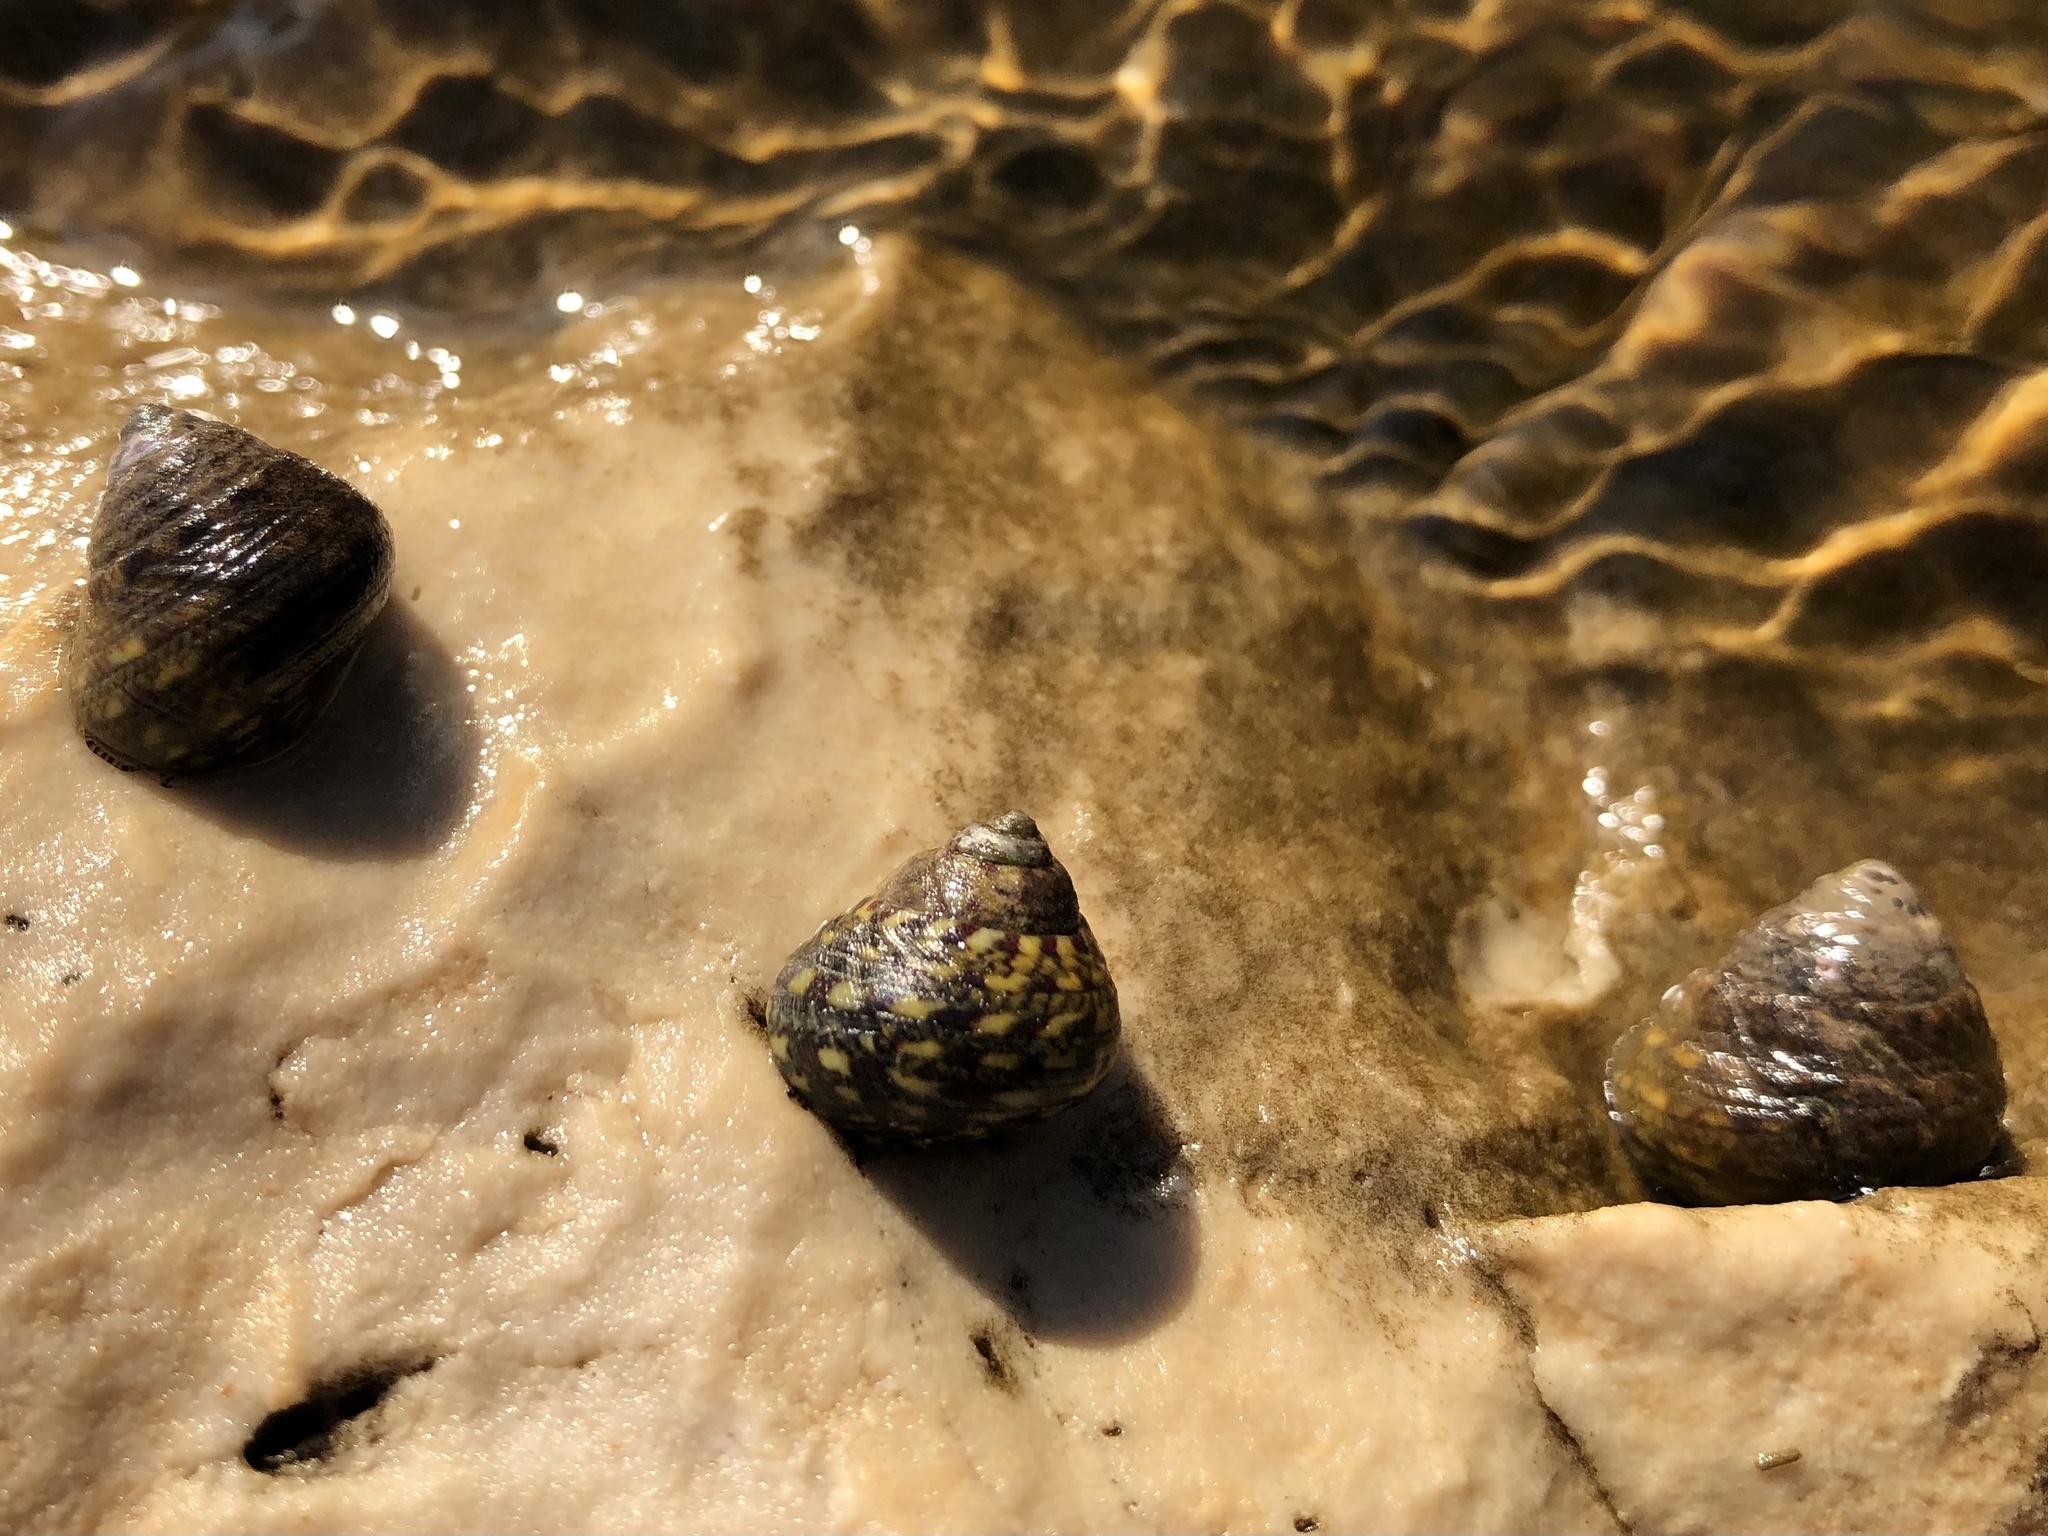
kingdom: Animalia
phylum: Mollusca
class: Gastropoda
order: Trochida
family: Trochidae
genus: Phorcus
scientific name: Phorcus articulatus
